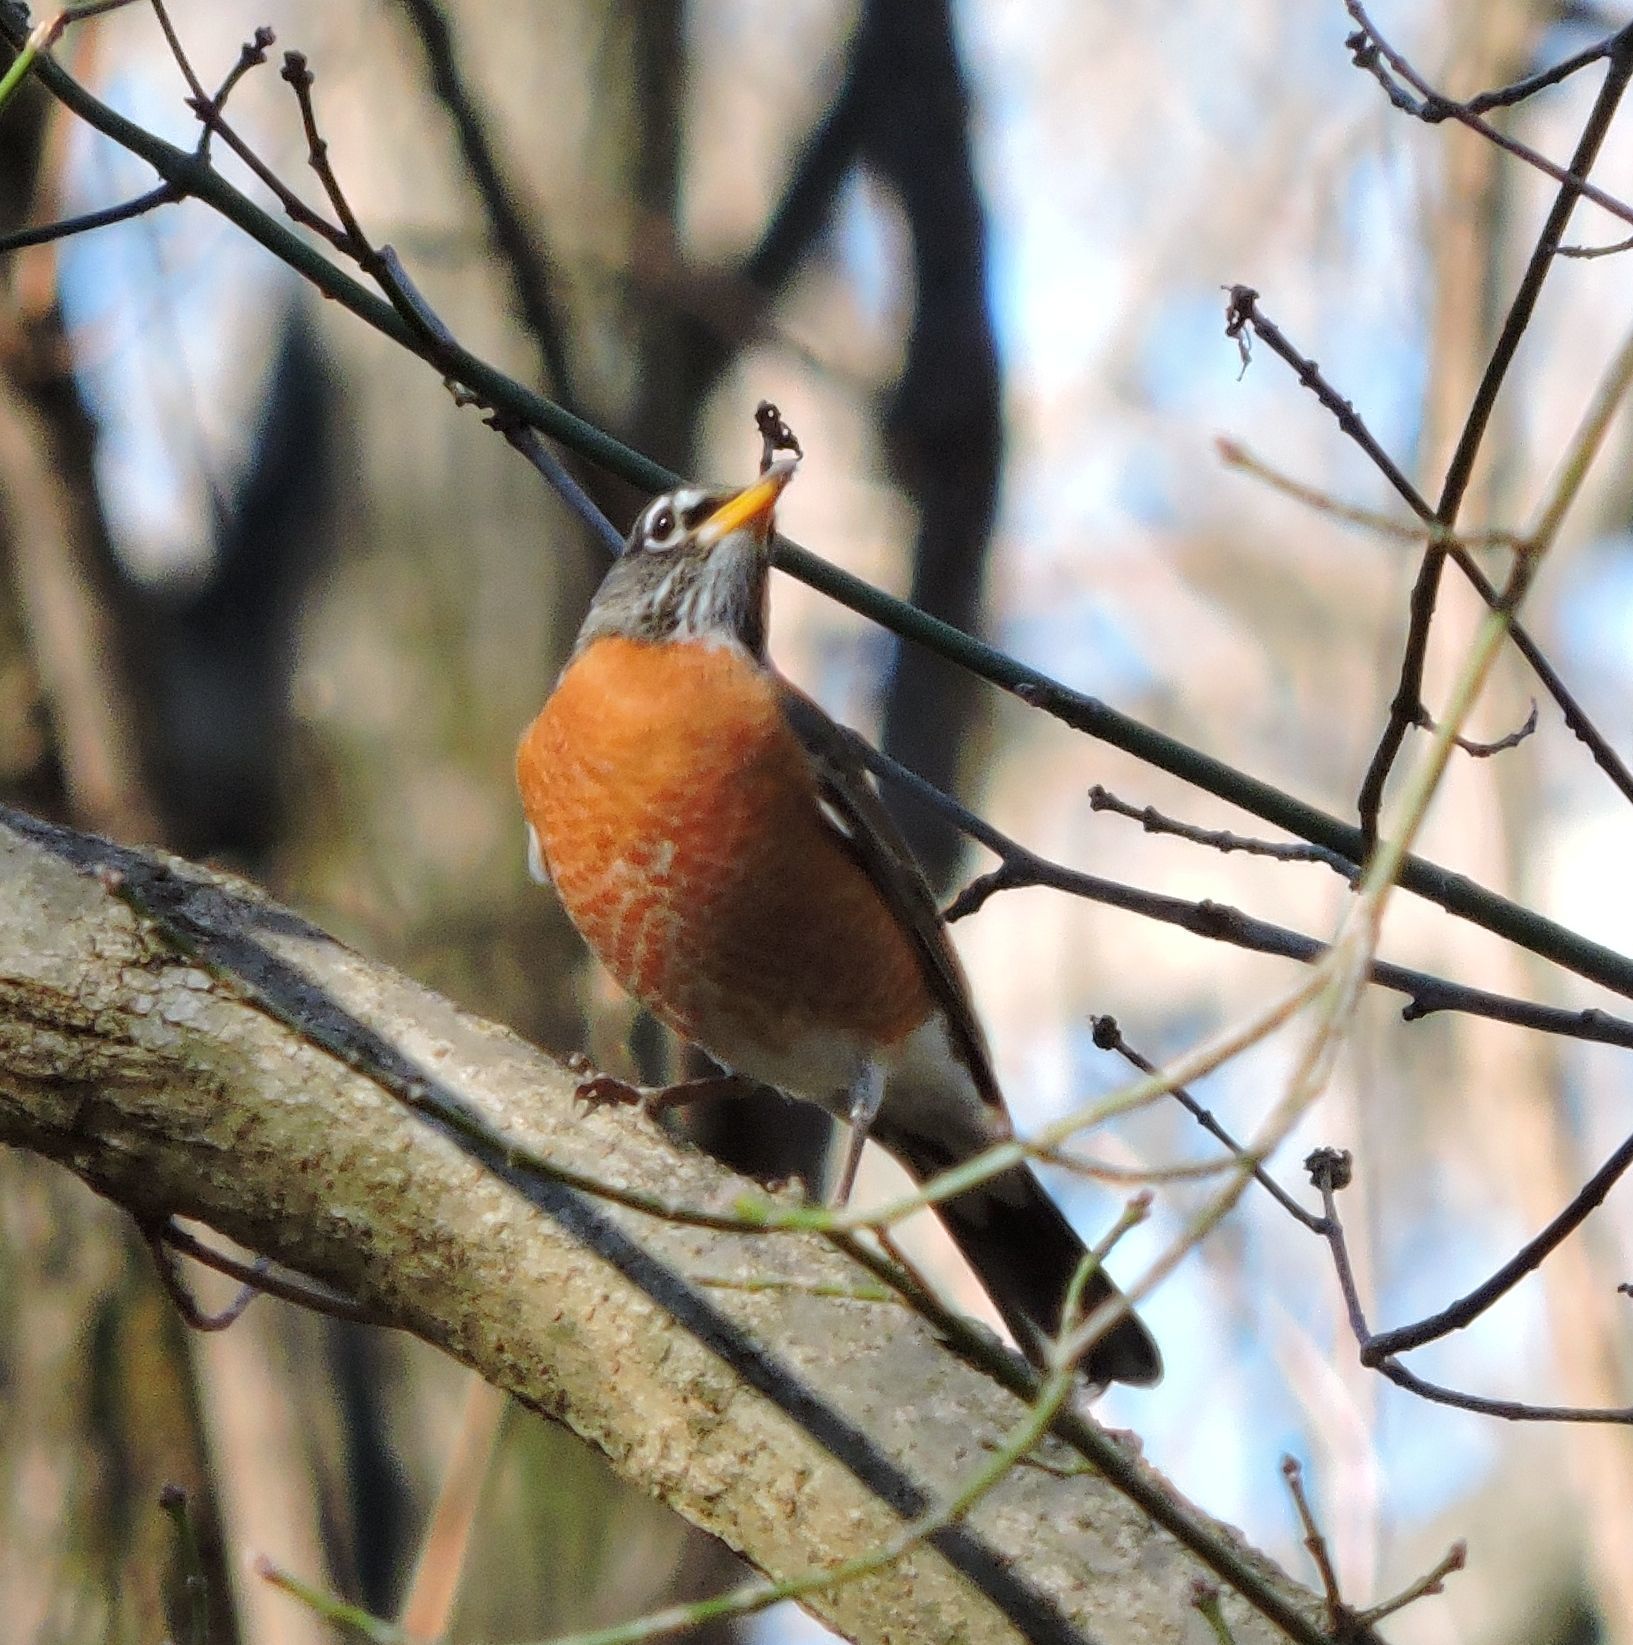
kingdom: Animalia
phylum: Chordata
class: Aves
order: Passeriformes
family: Turdidae
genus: Turdus
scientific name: Turdus migratorius
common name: American robin
